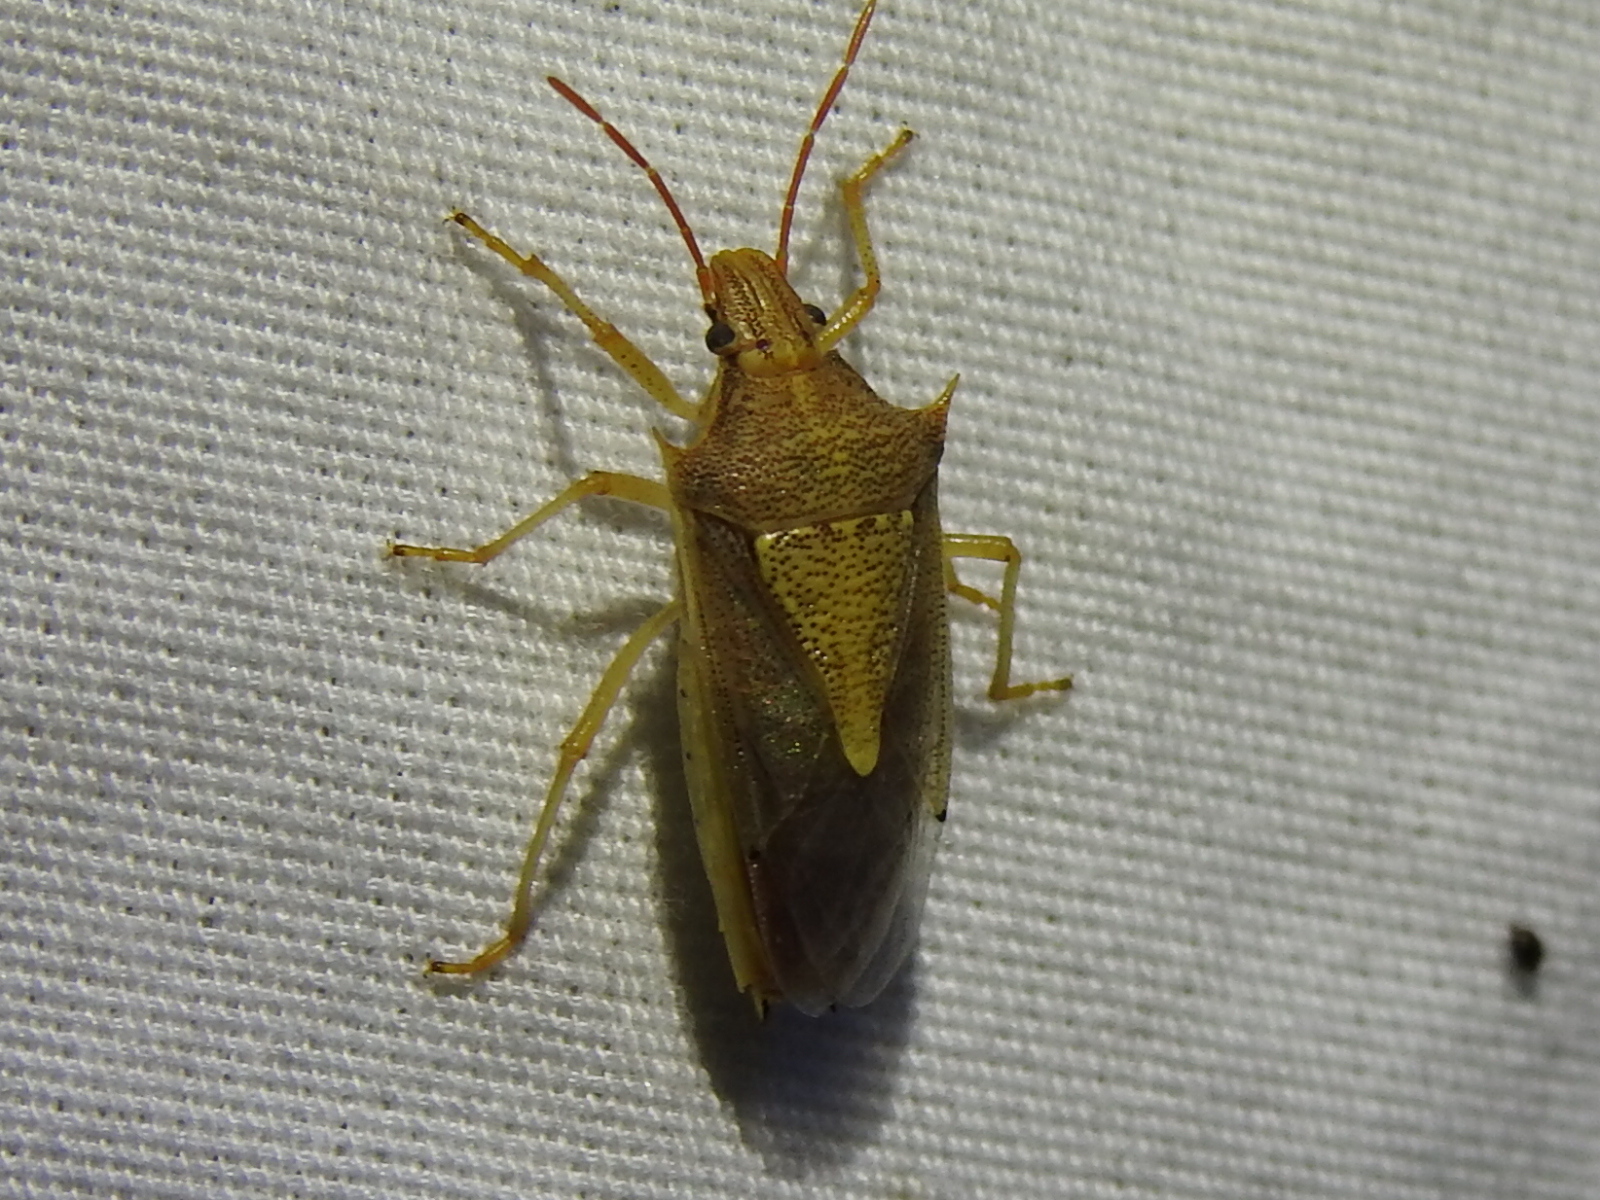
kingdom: Animalia
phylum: Arthropoda
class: Insecta
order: Hemiptera
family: Pentatomidae
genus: Oebalus
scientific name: Oebalus pugnax
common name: Rice stink bug
